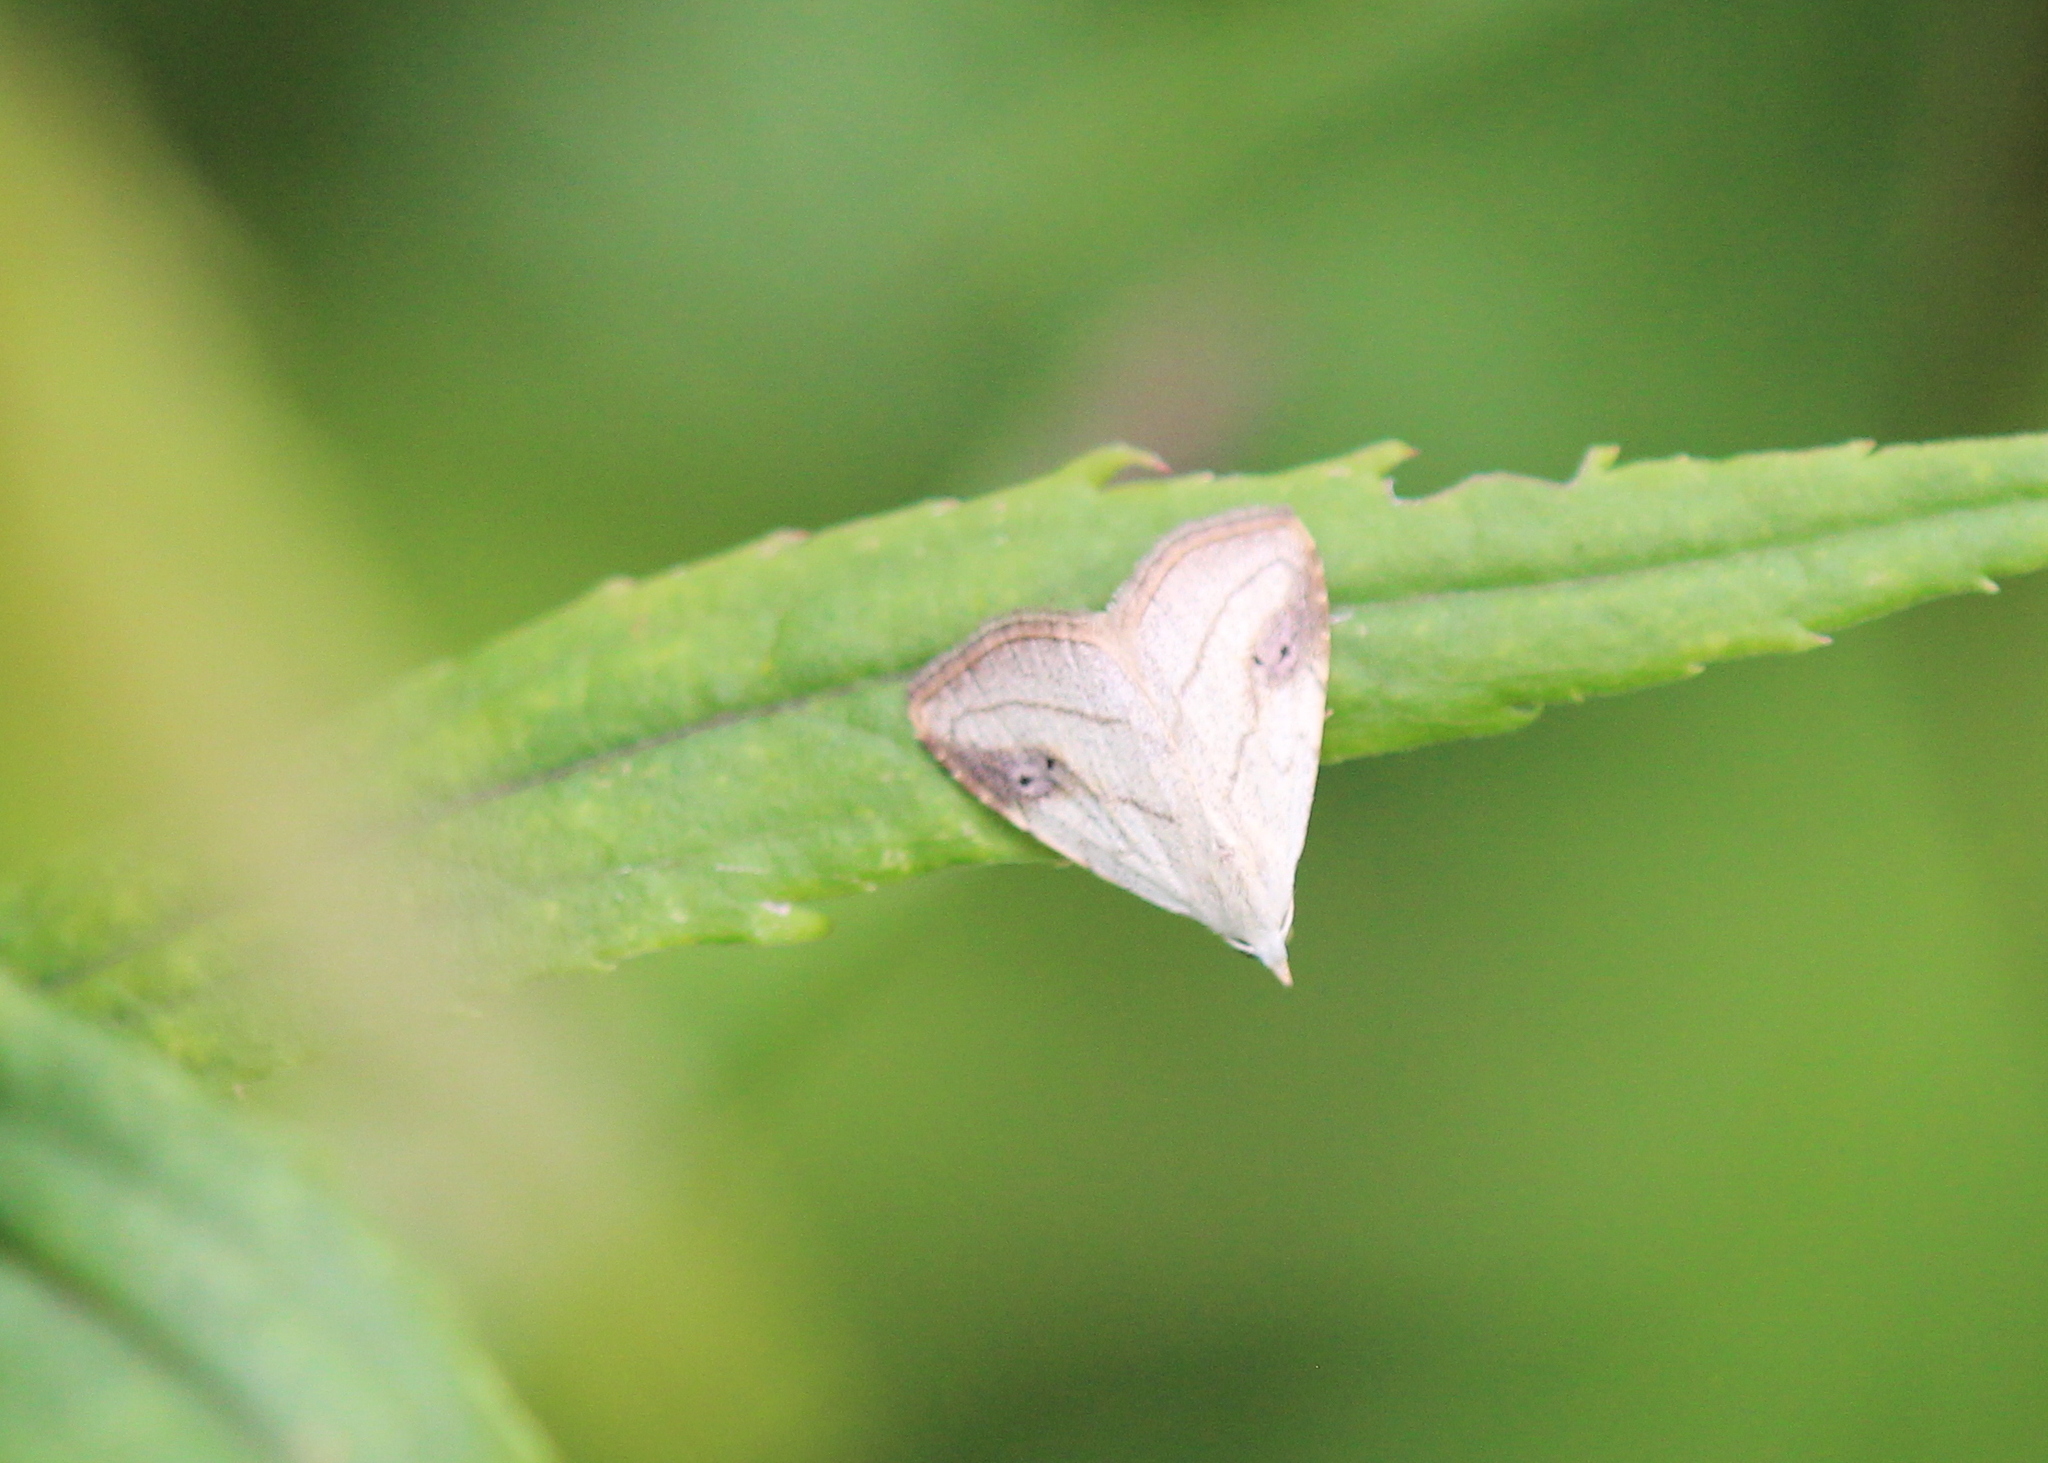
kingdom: Animalia
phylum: Arthropoda
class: Insecta
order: Lepidoptera
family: Erebidae
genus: Rivula
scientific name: Rivula propinqualis
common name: Spotted grass moth
